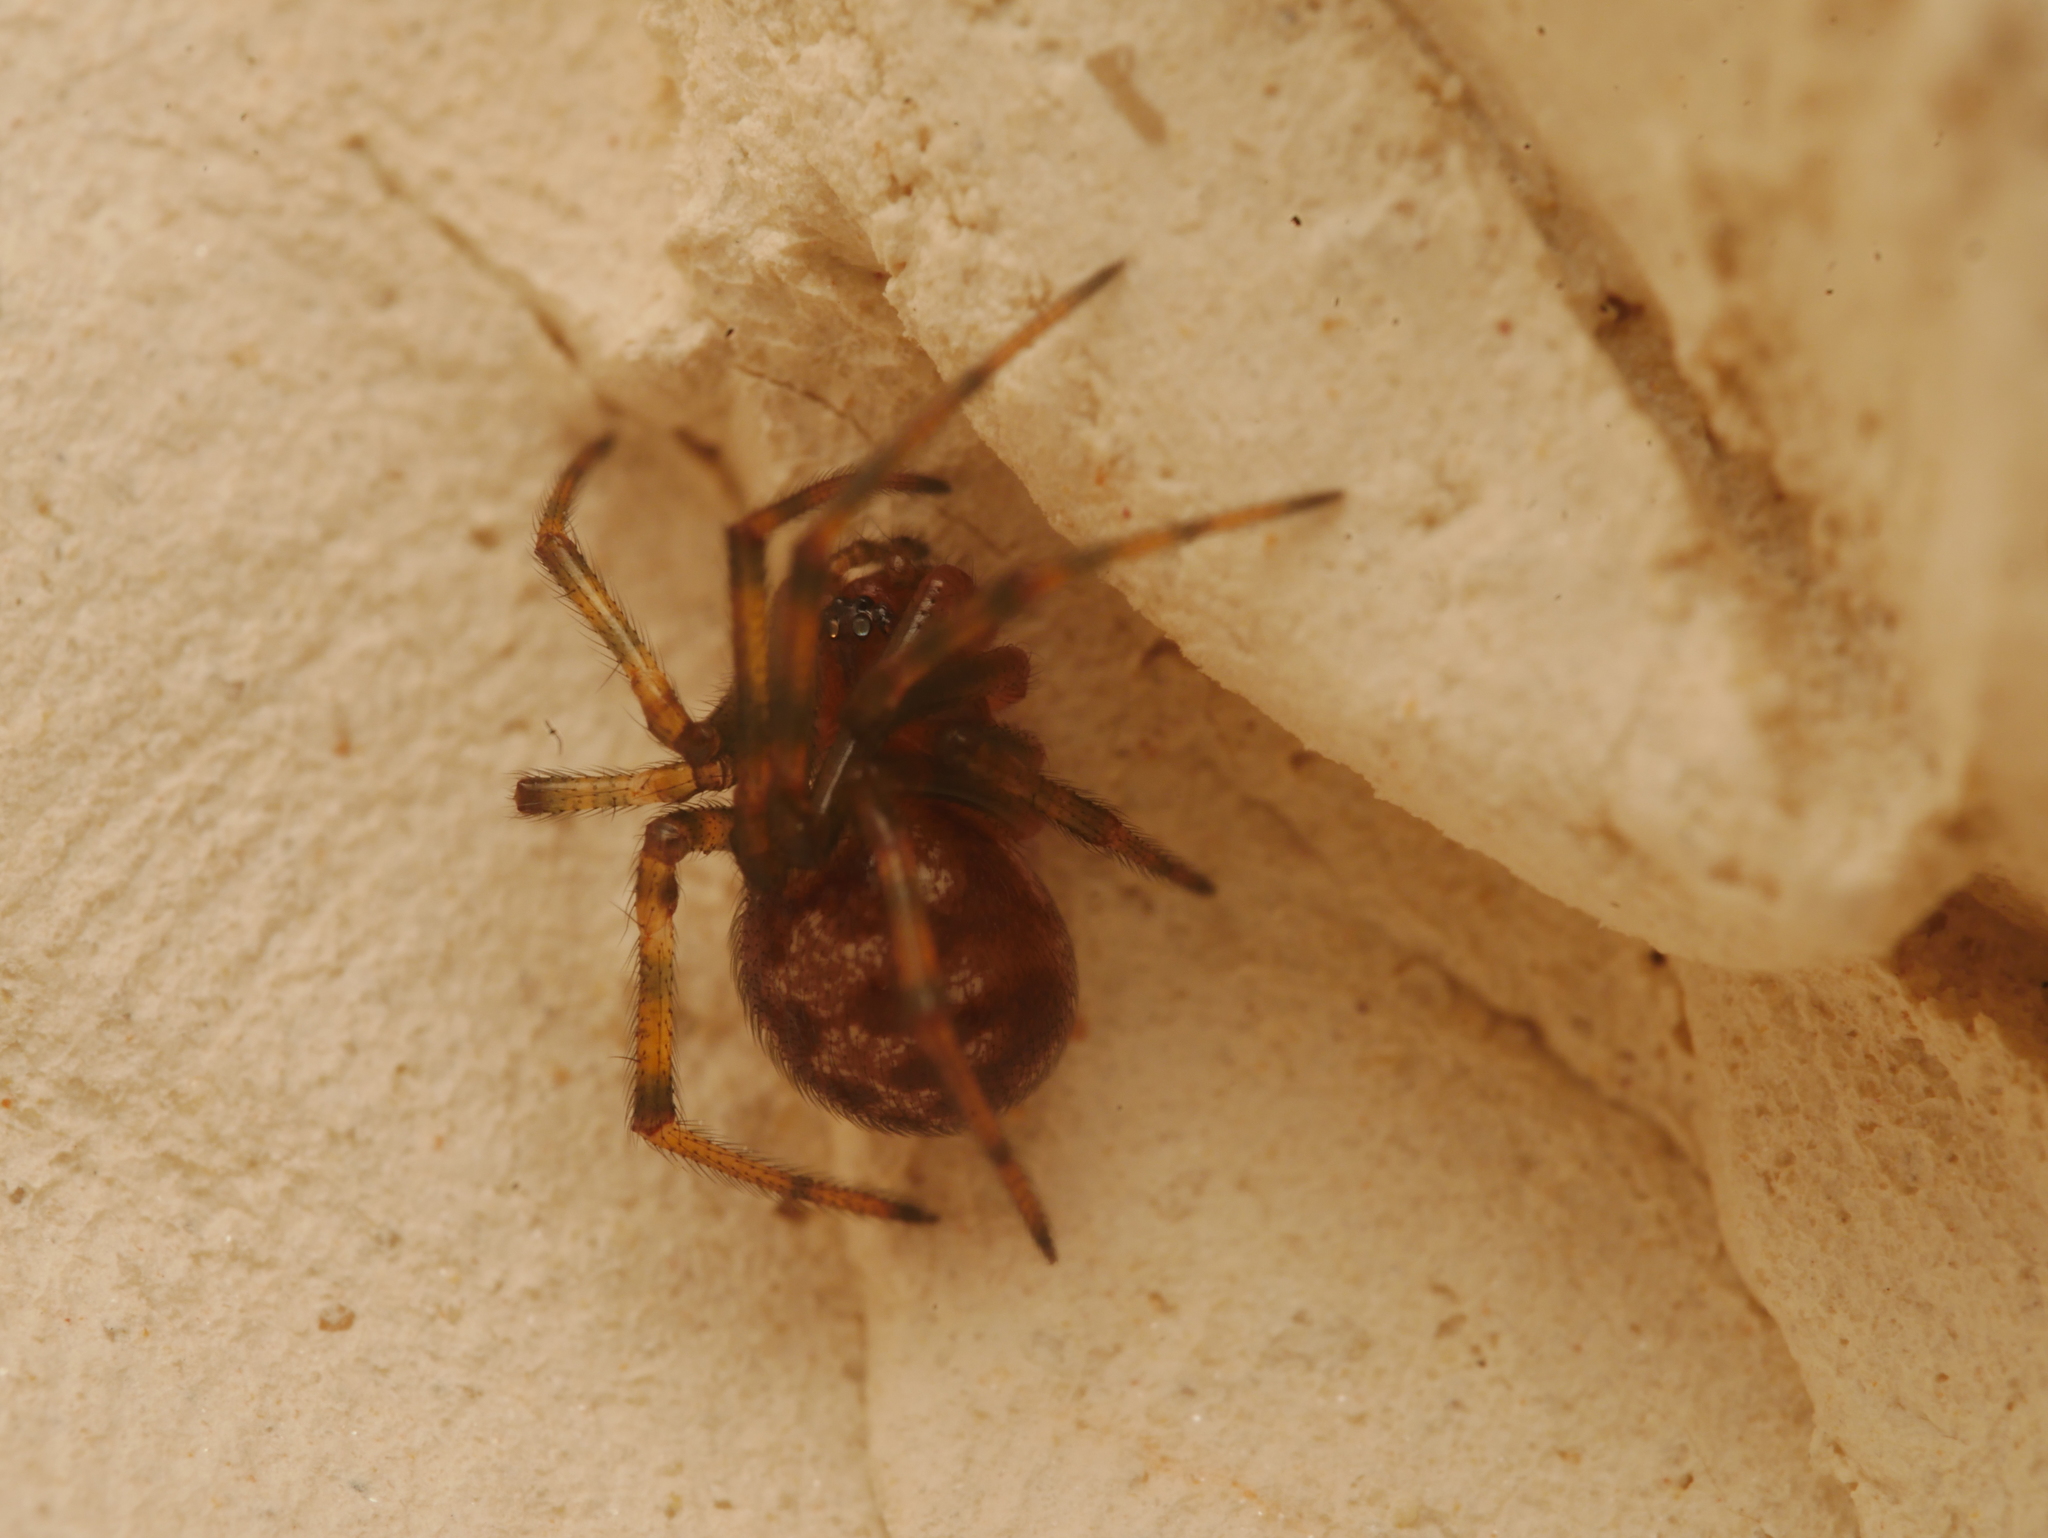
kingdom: Animalia
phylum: Arthropoda
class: Arachnida
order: Araneae
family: Theridiidae
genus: Steatoda
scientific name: Steatoda triangulosa
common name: Triangulate bud spider
